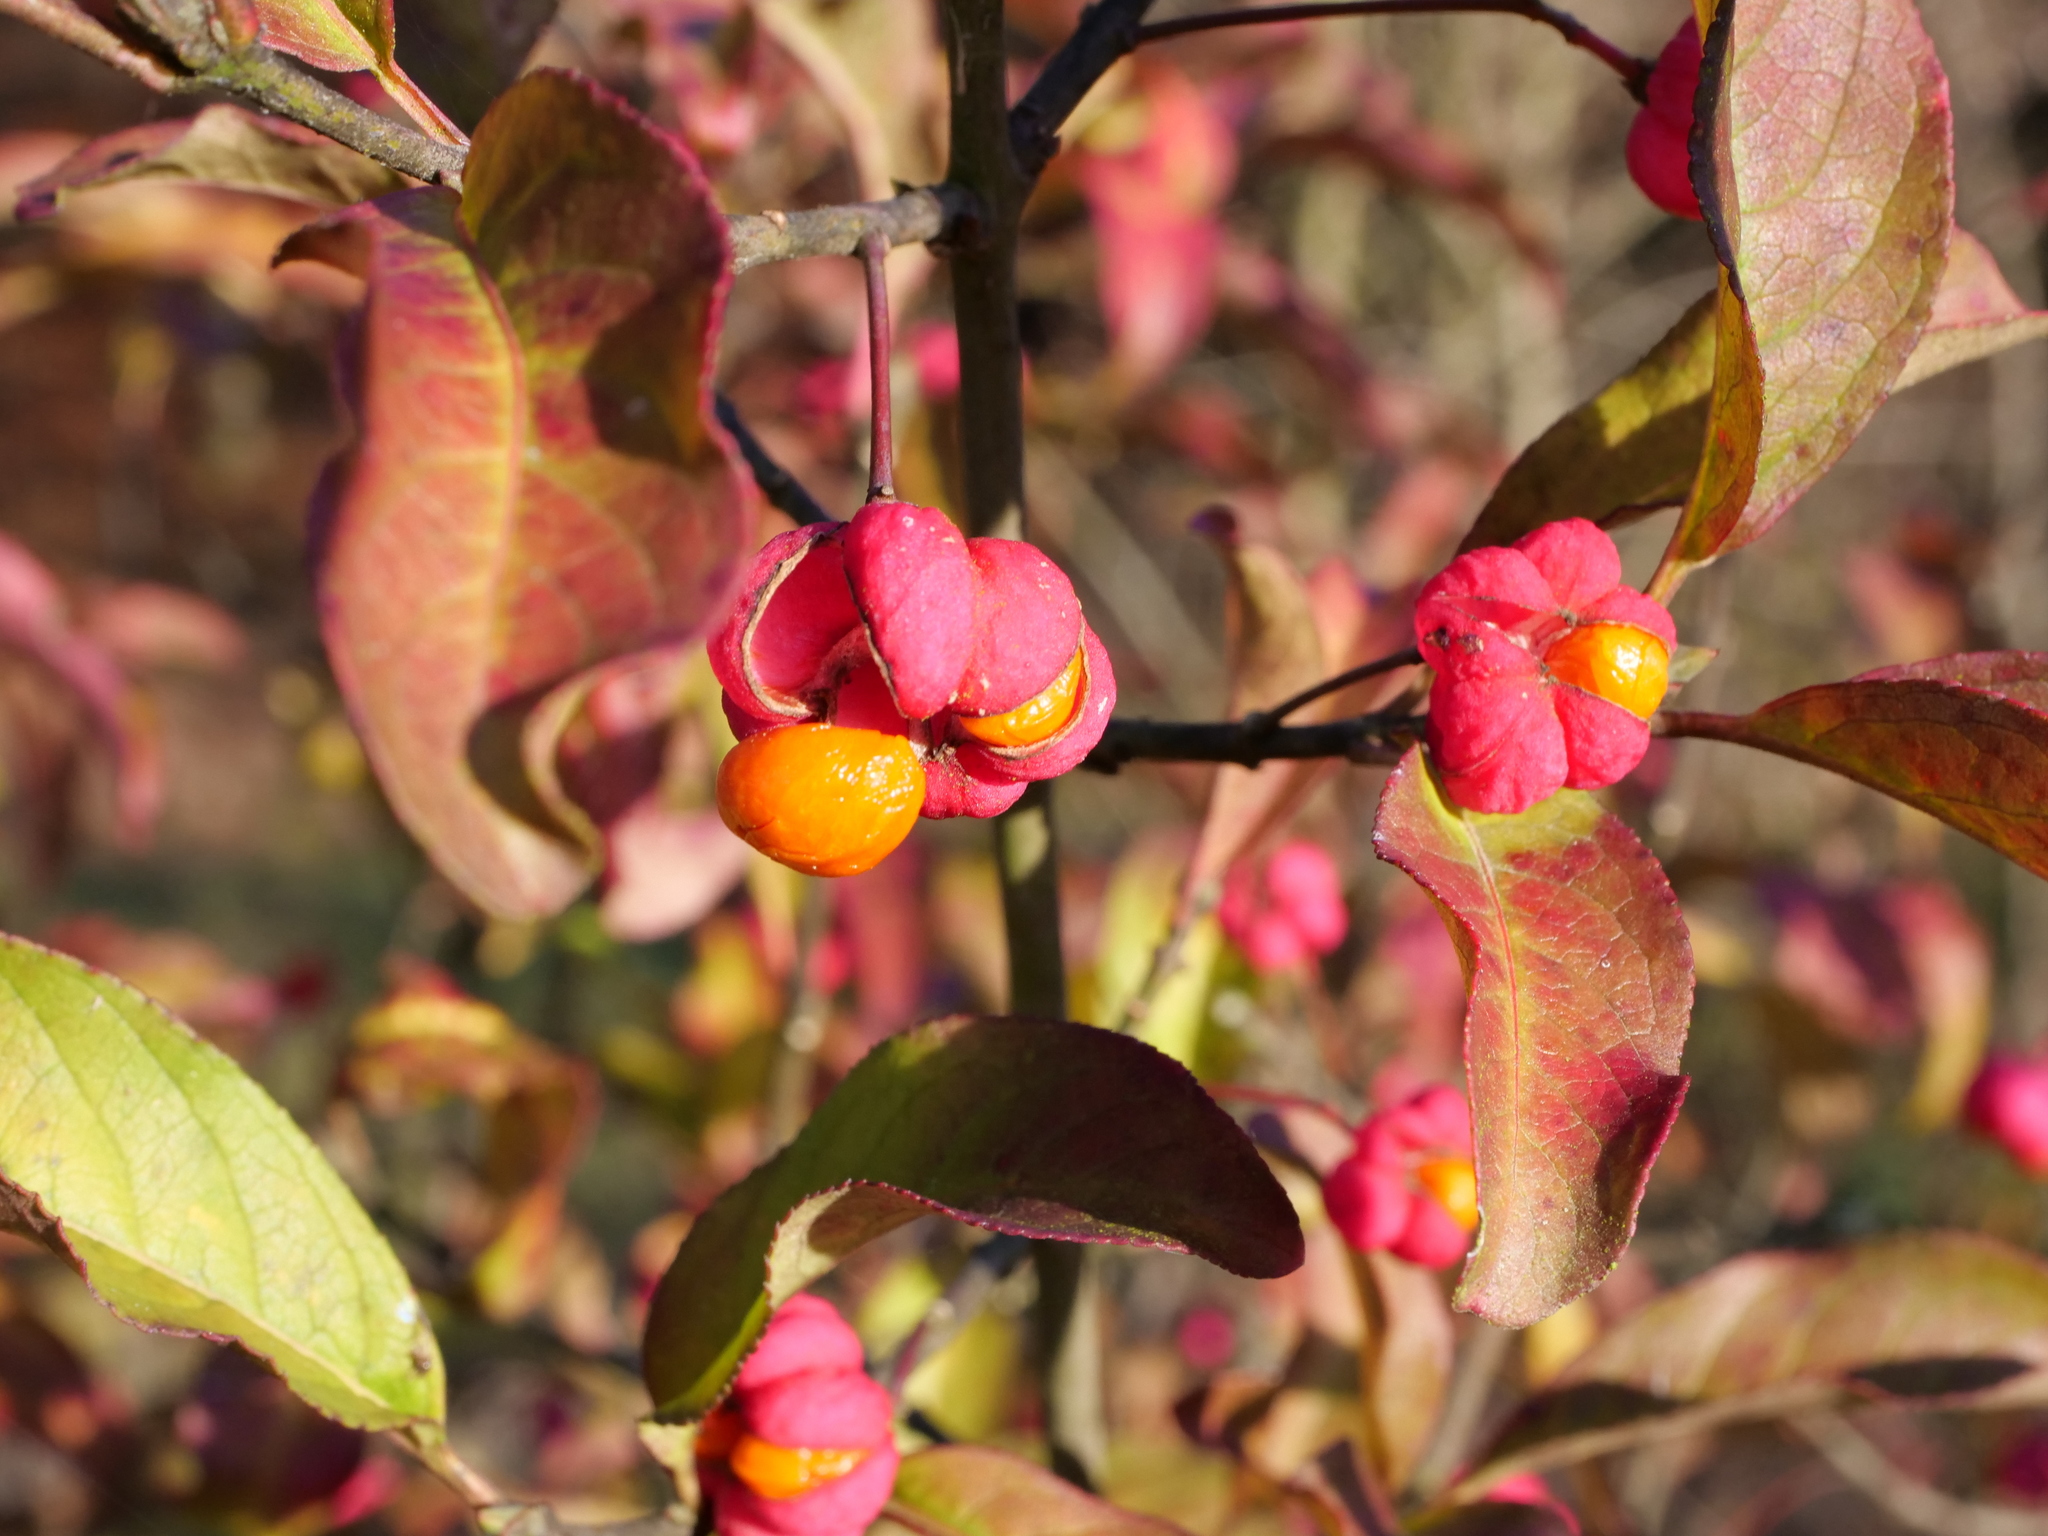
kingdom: Plantae
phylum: Tracheophyta
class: Magnoliopsida
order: Celastrales
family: Celastraceae
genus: Euonymus
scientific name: Euonymus europaeus
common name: Spindle
